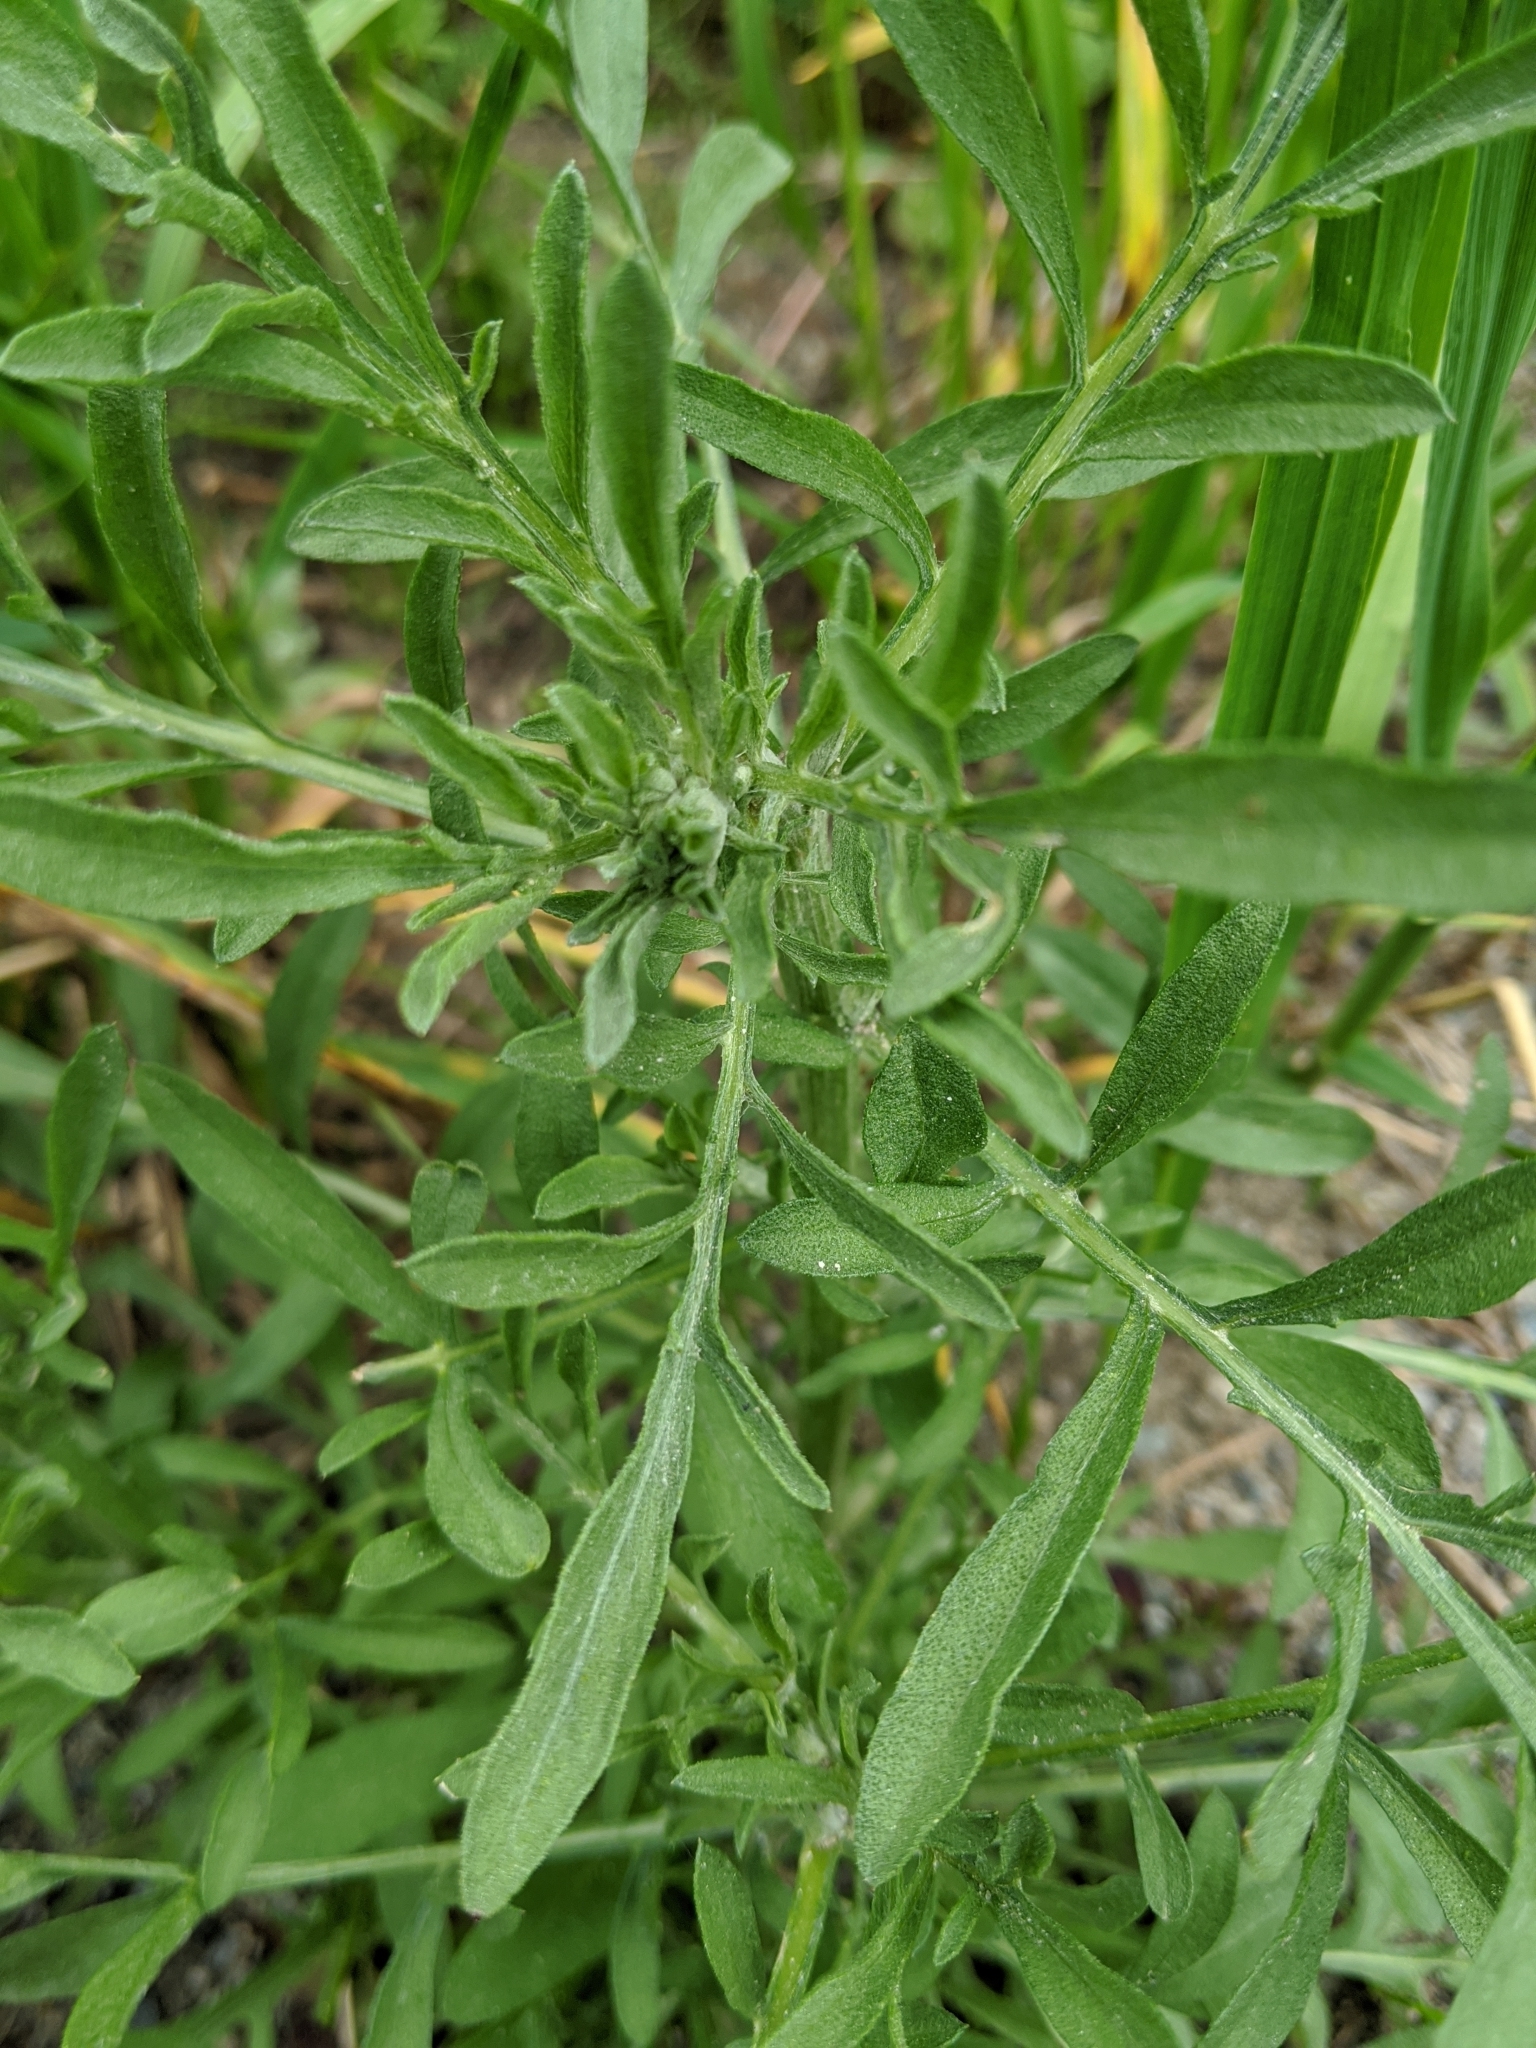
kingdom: Plantae
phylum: Tracheophyta
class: Magnoliopsida
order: Asterales
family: Asteraceae
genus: Centaurea
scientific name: Centaurea stoebe
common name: Spotted knapweed
